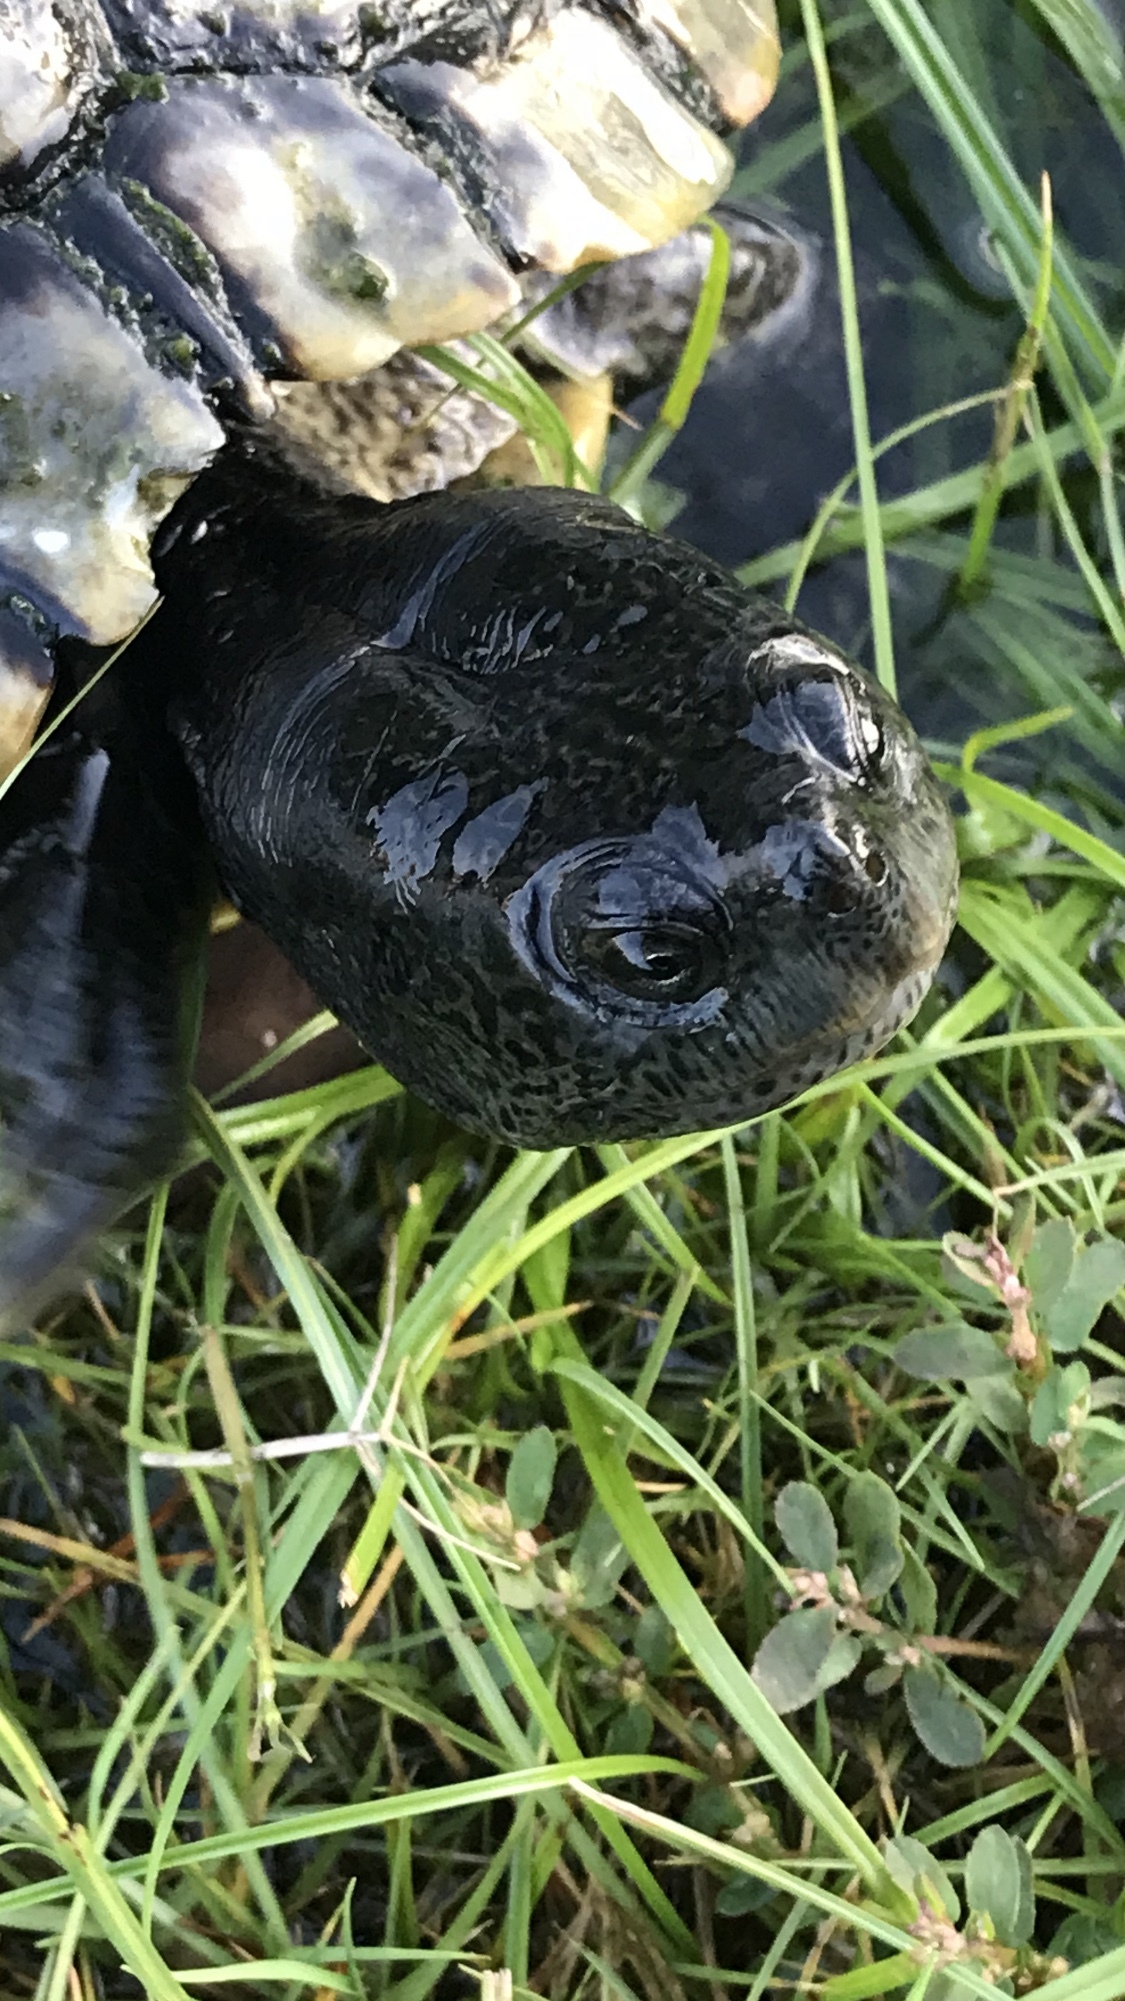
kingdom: Animalia
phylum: Chordata
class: Testudines
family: Emydidae
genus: Trachemys
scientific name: Trachemys scripta
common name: Slider
